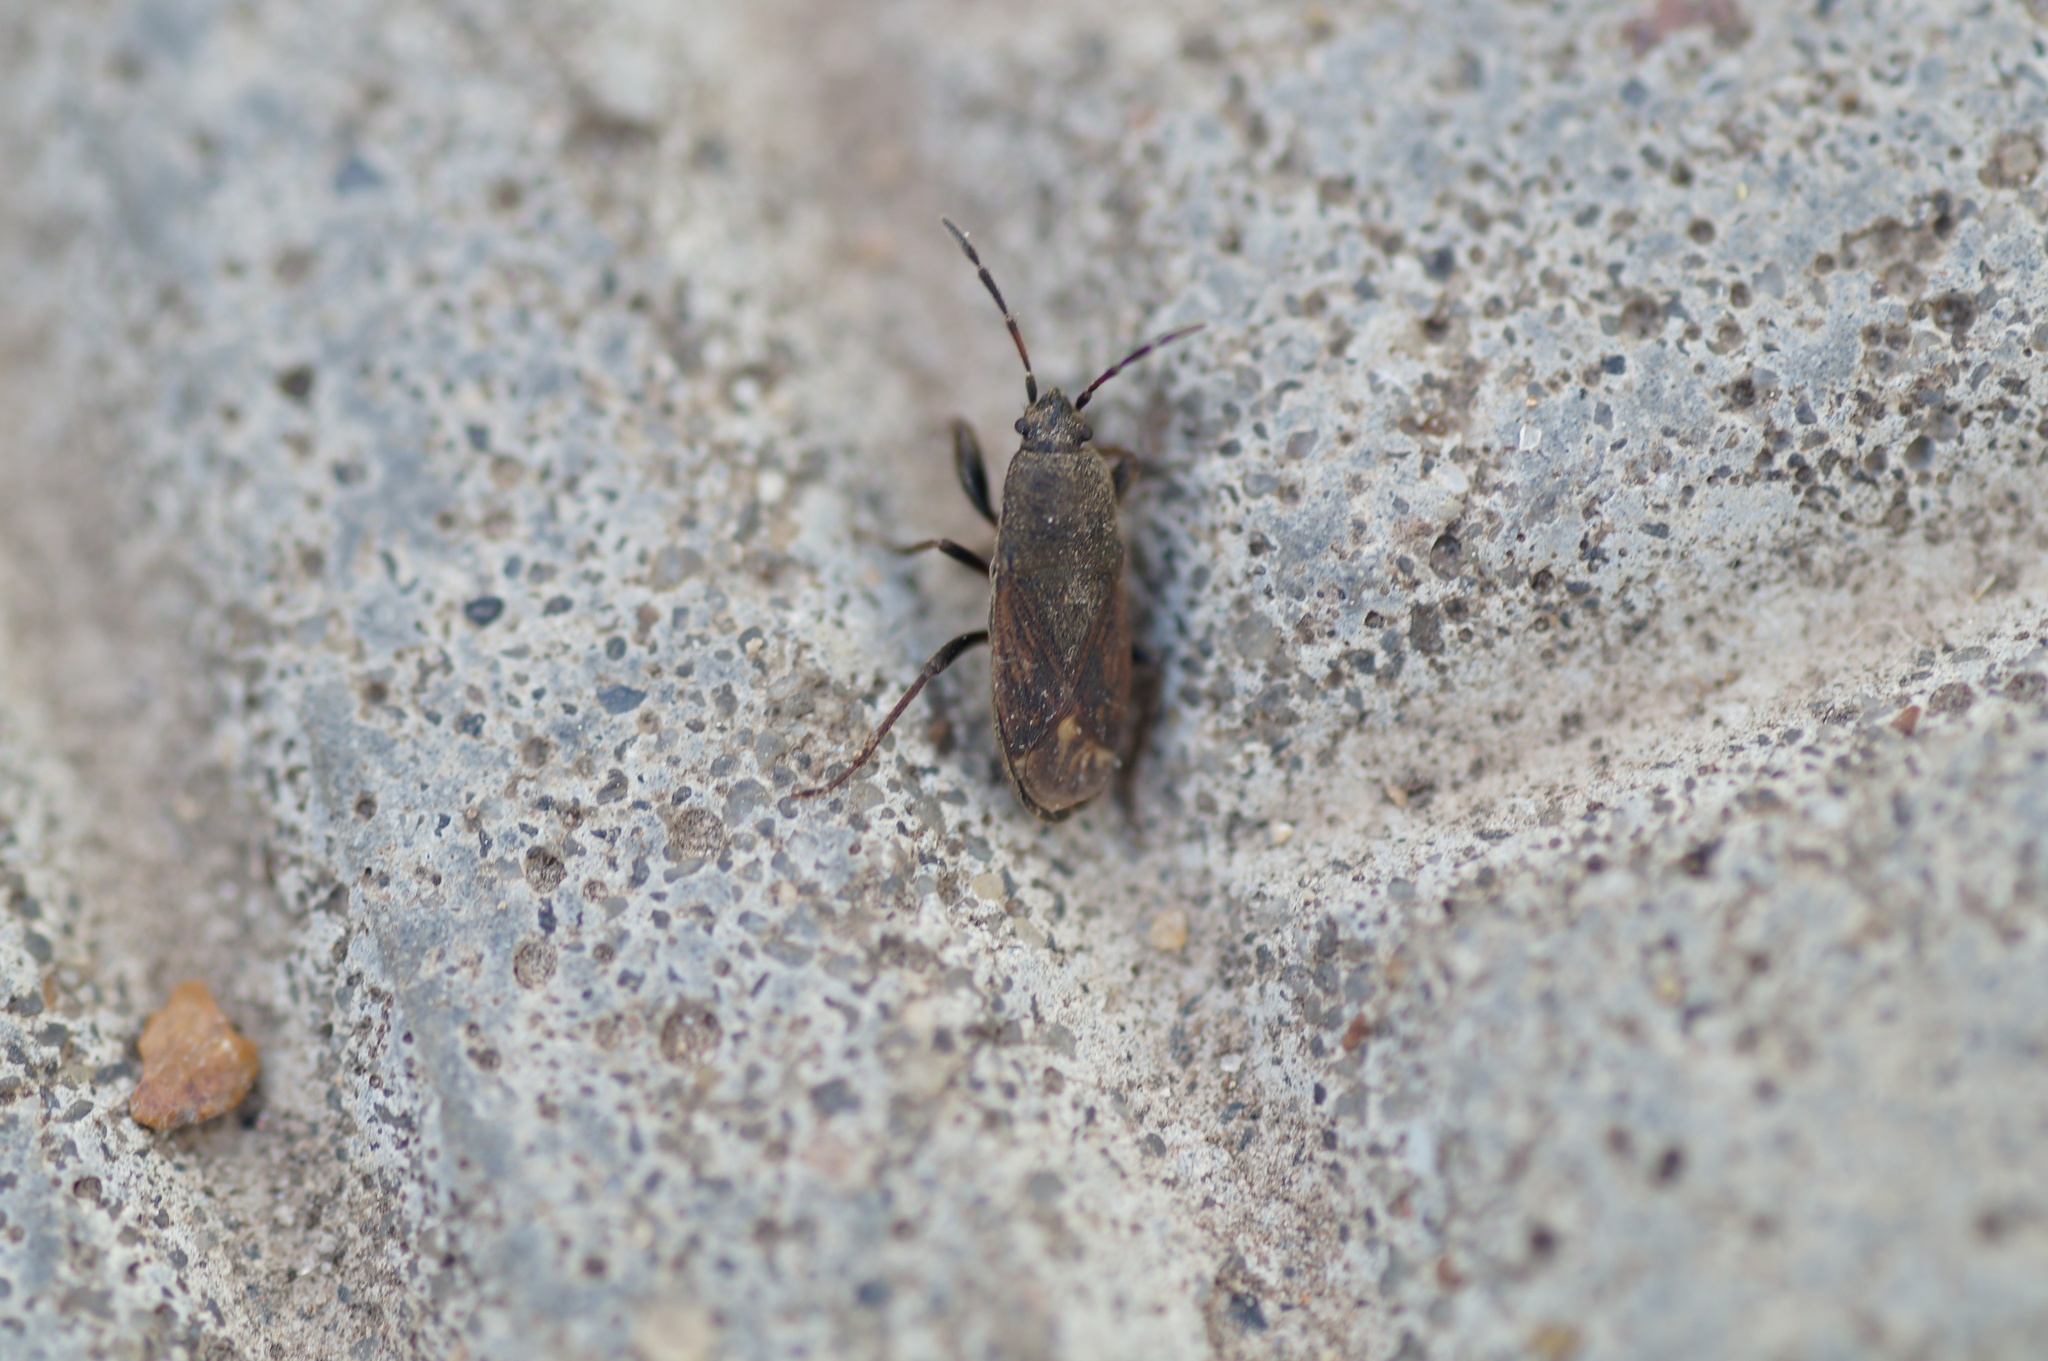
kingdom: Animalia
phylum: Arthropoda
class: Insecta
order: Hemiptera
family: Rhyparochromidae
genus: Megalonotus
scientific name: Megalonotus chiragra
